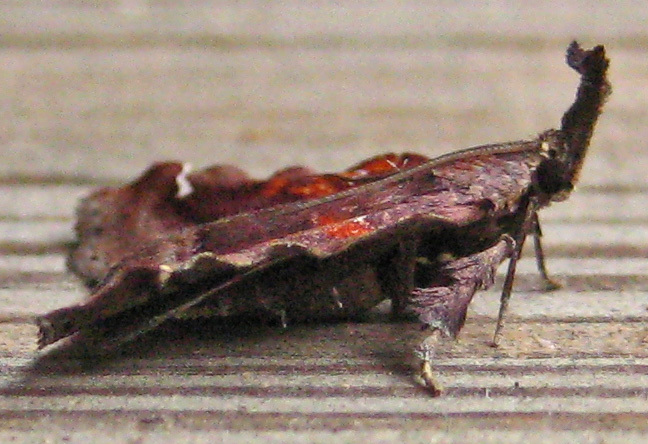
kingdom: Animalia
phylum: Arthropoda
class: Insecta
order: Lepidoptera
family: Pyralidae
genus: Clydonopteron
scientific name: Clydonopteron sacculana
